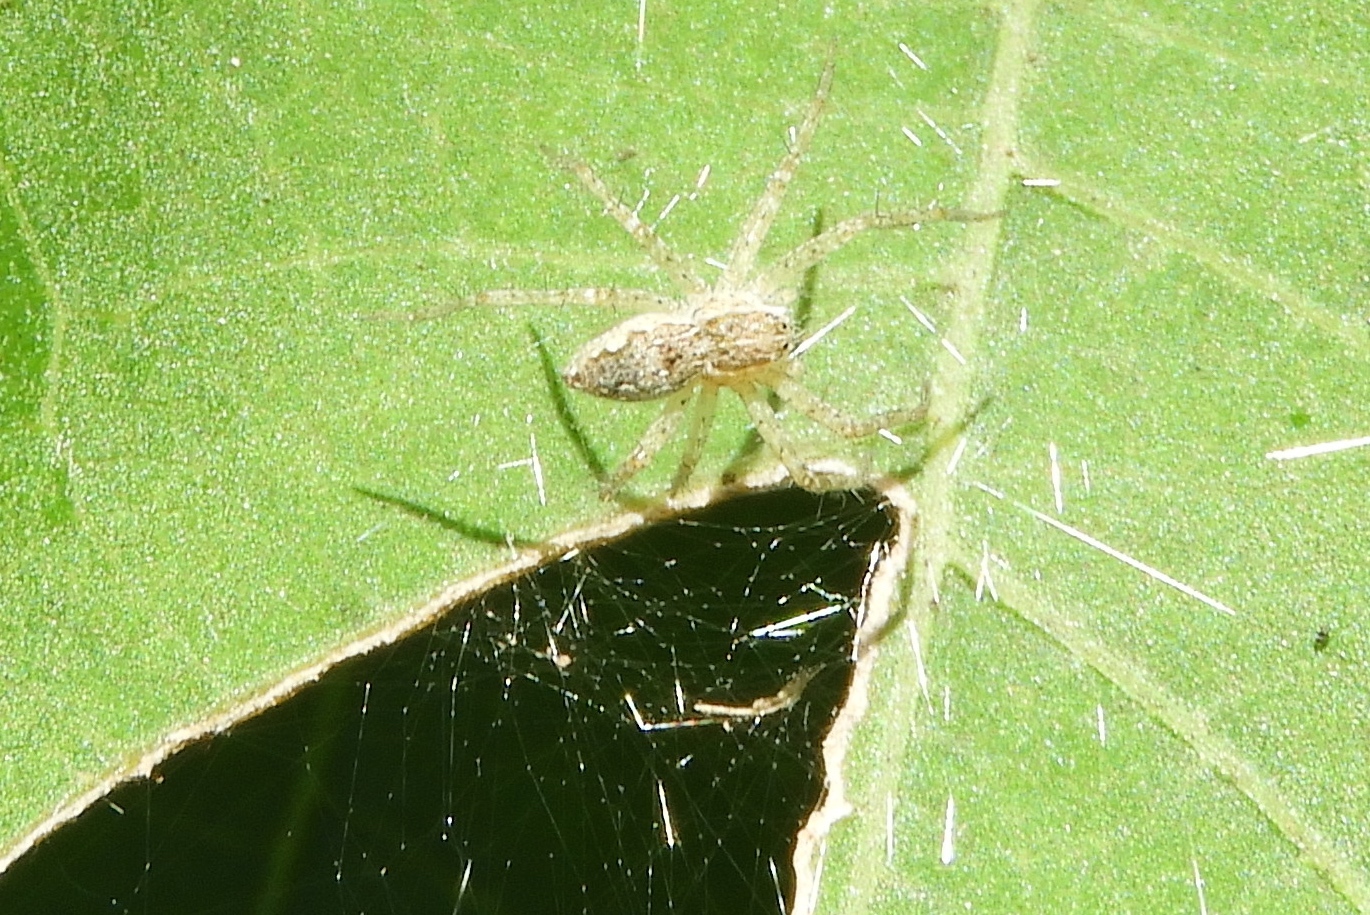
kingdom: Animalia
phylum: Arthropoda
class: Arachnida
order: Araneae
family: Pisauridae
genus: Tinus
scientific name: Tinus
